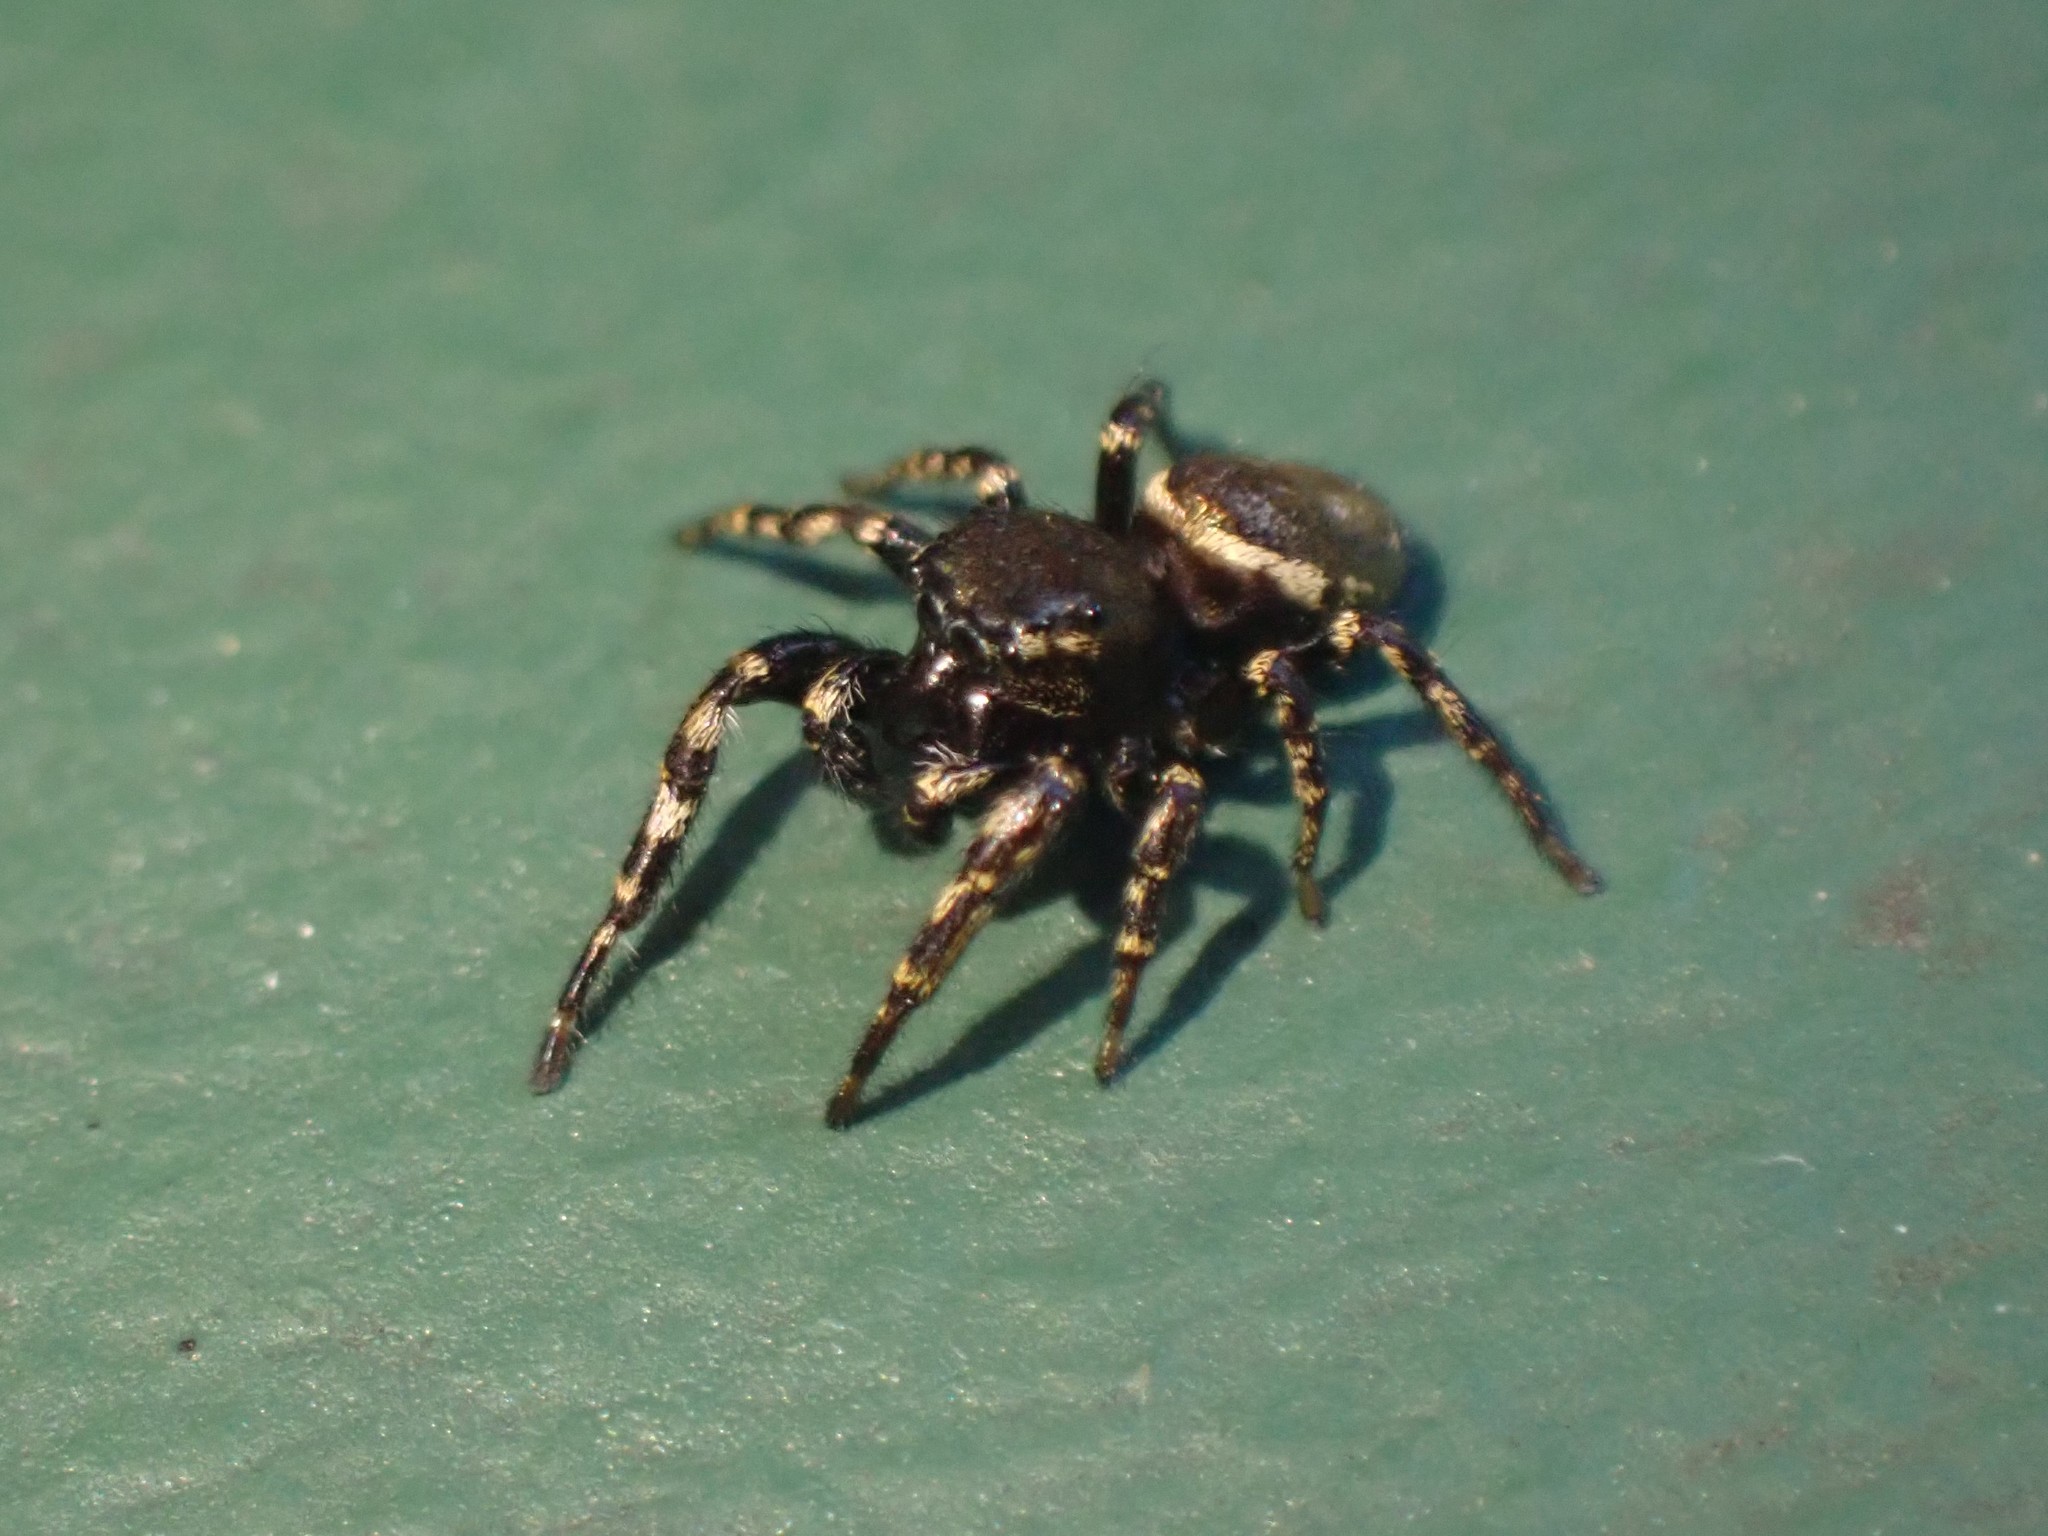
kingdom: Animalia
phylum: Arthropoda
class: Arachnida
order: Araneae
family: Salticidae
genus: Pelegrina
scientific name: Pelegrina aeneola
